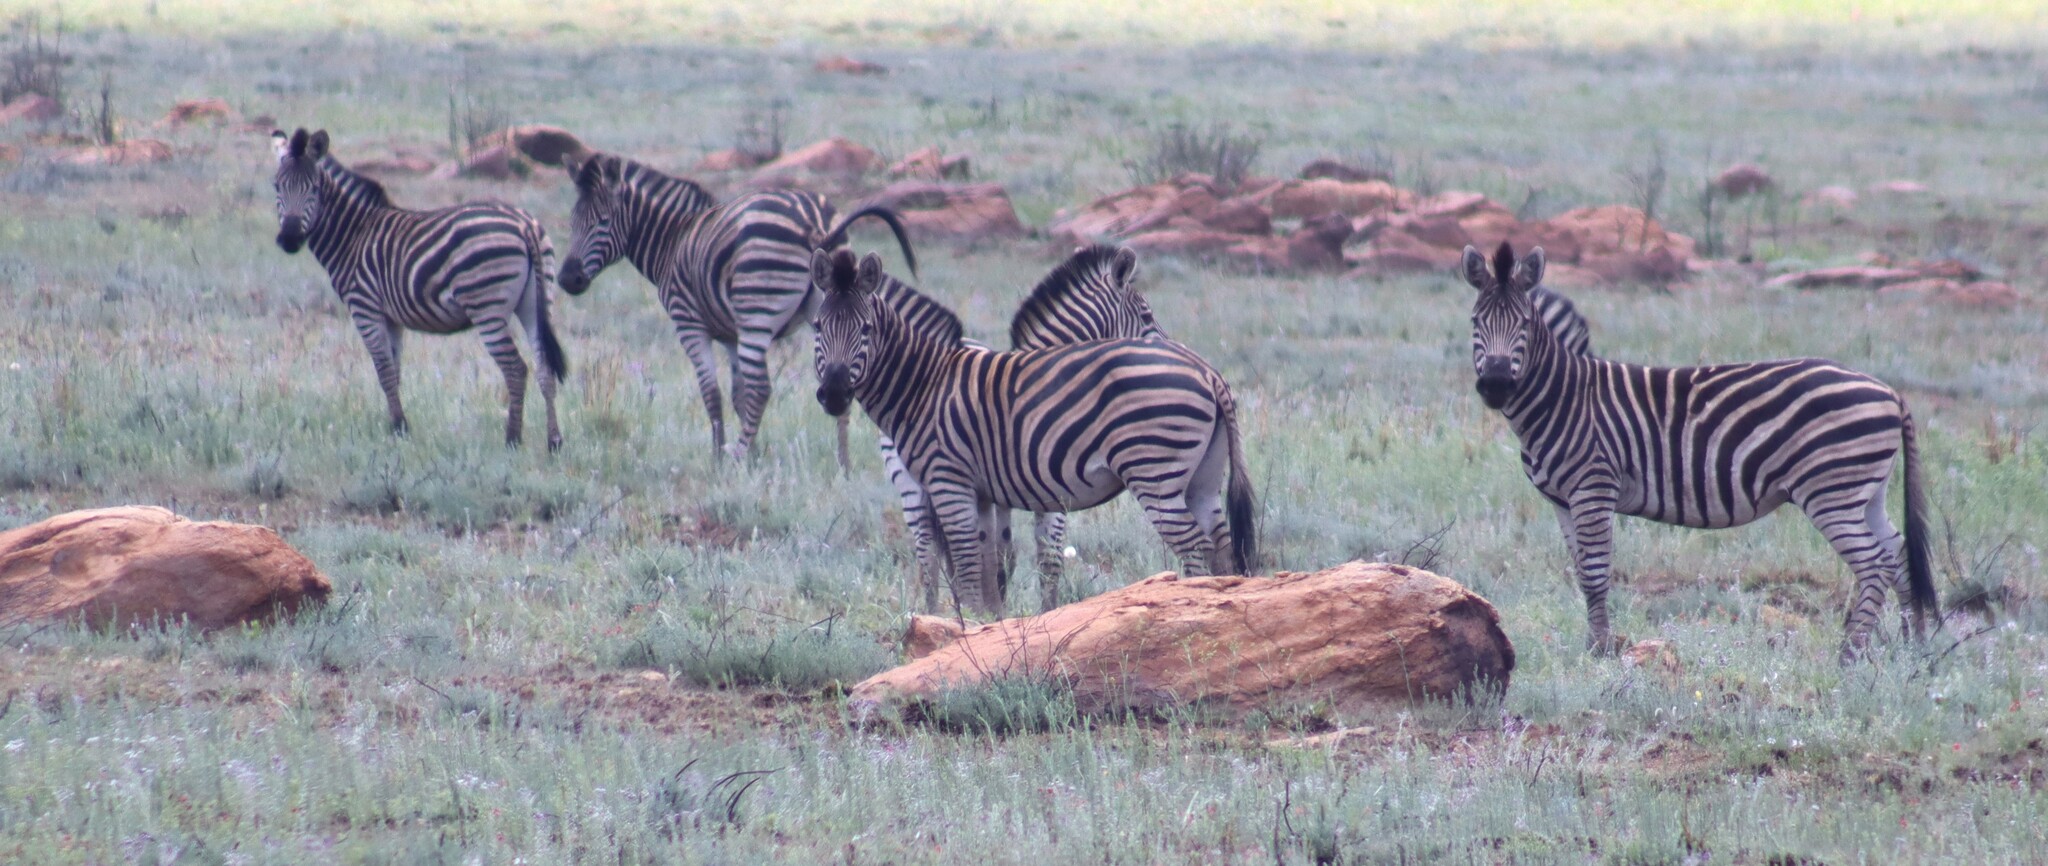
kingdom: Animalia
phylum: Chordata
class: Mammalia
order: Perissodactyla
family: Equidae
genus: Equus
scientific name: Equus quagga
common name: Plains zebra
